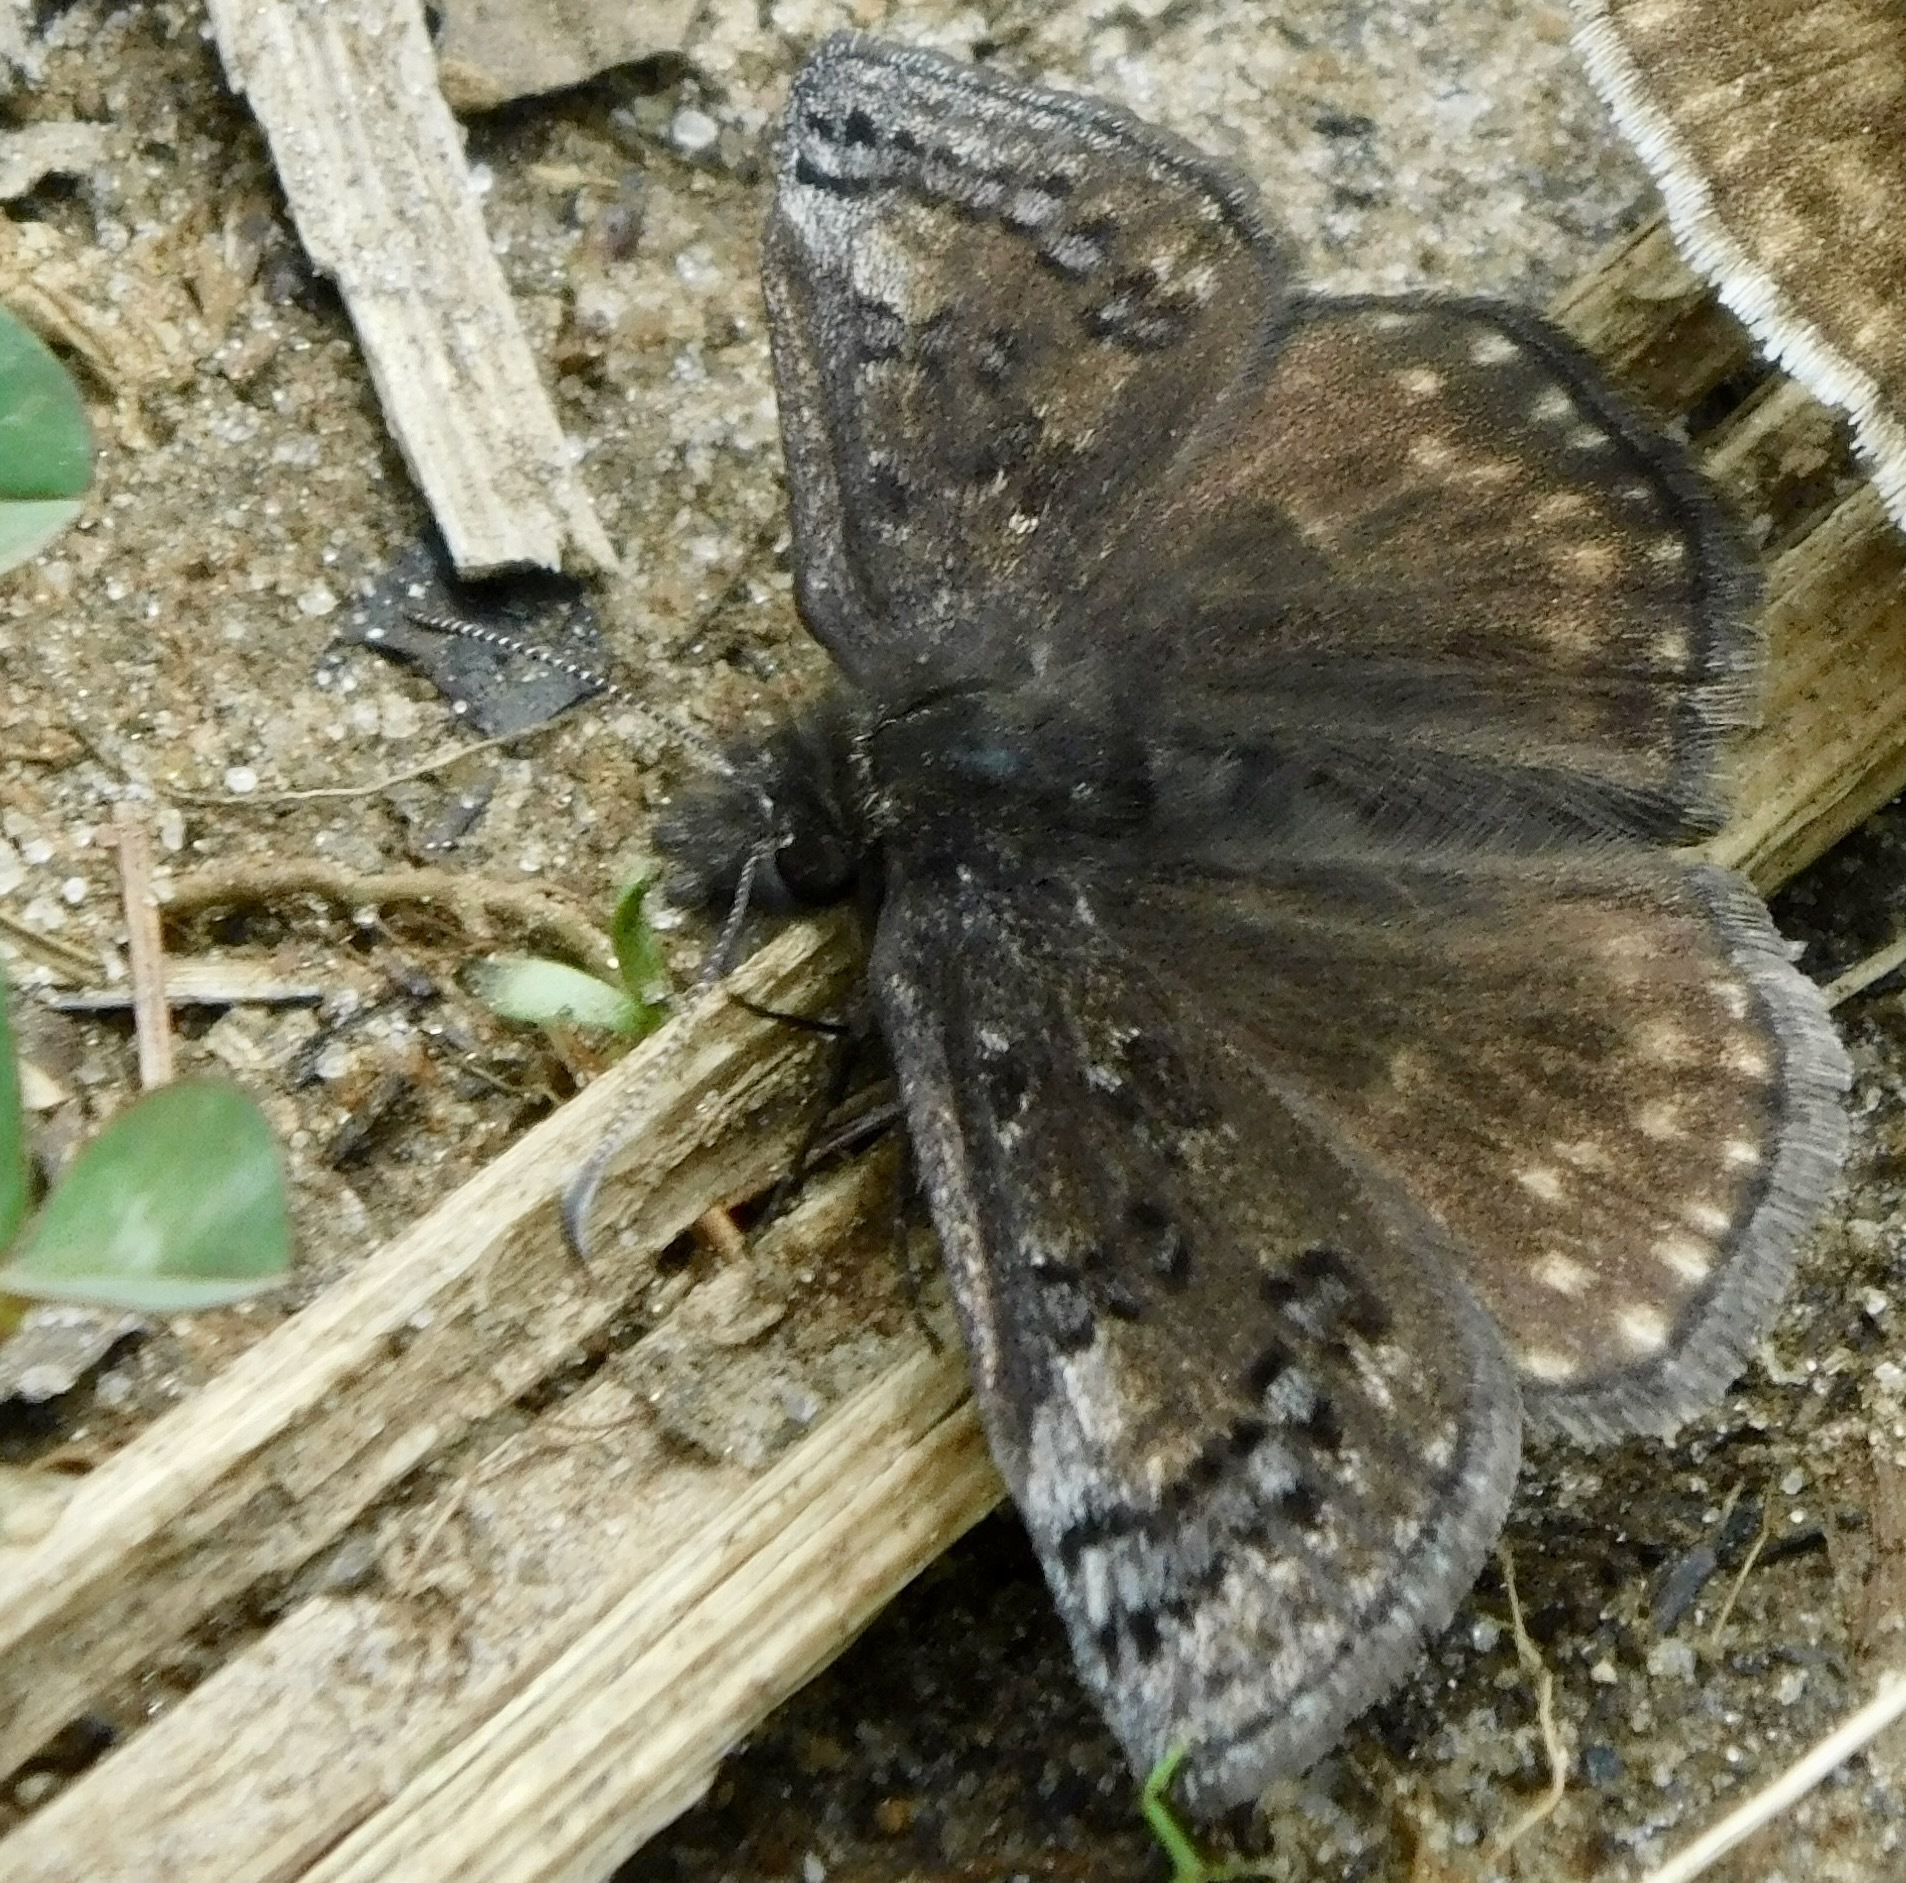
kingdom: Animalia
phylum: Arthropoda
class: Insecta
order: Lepidoptera
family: Hesperiidae
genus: Erynnis
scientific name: Erynnis icelus
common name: Dreamy duskywing
